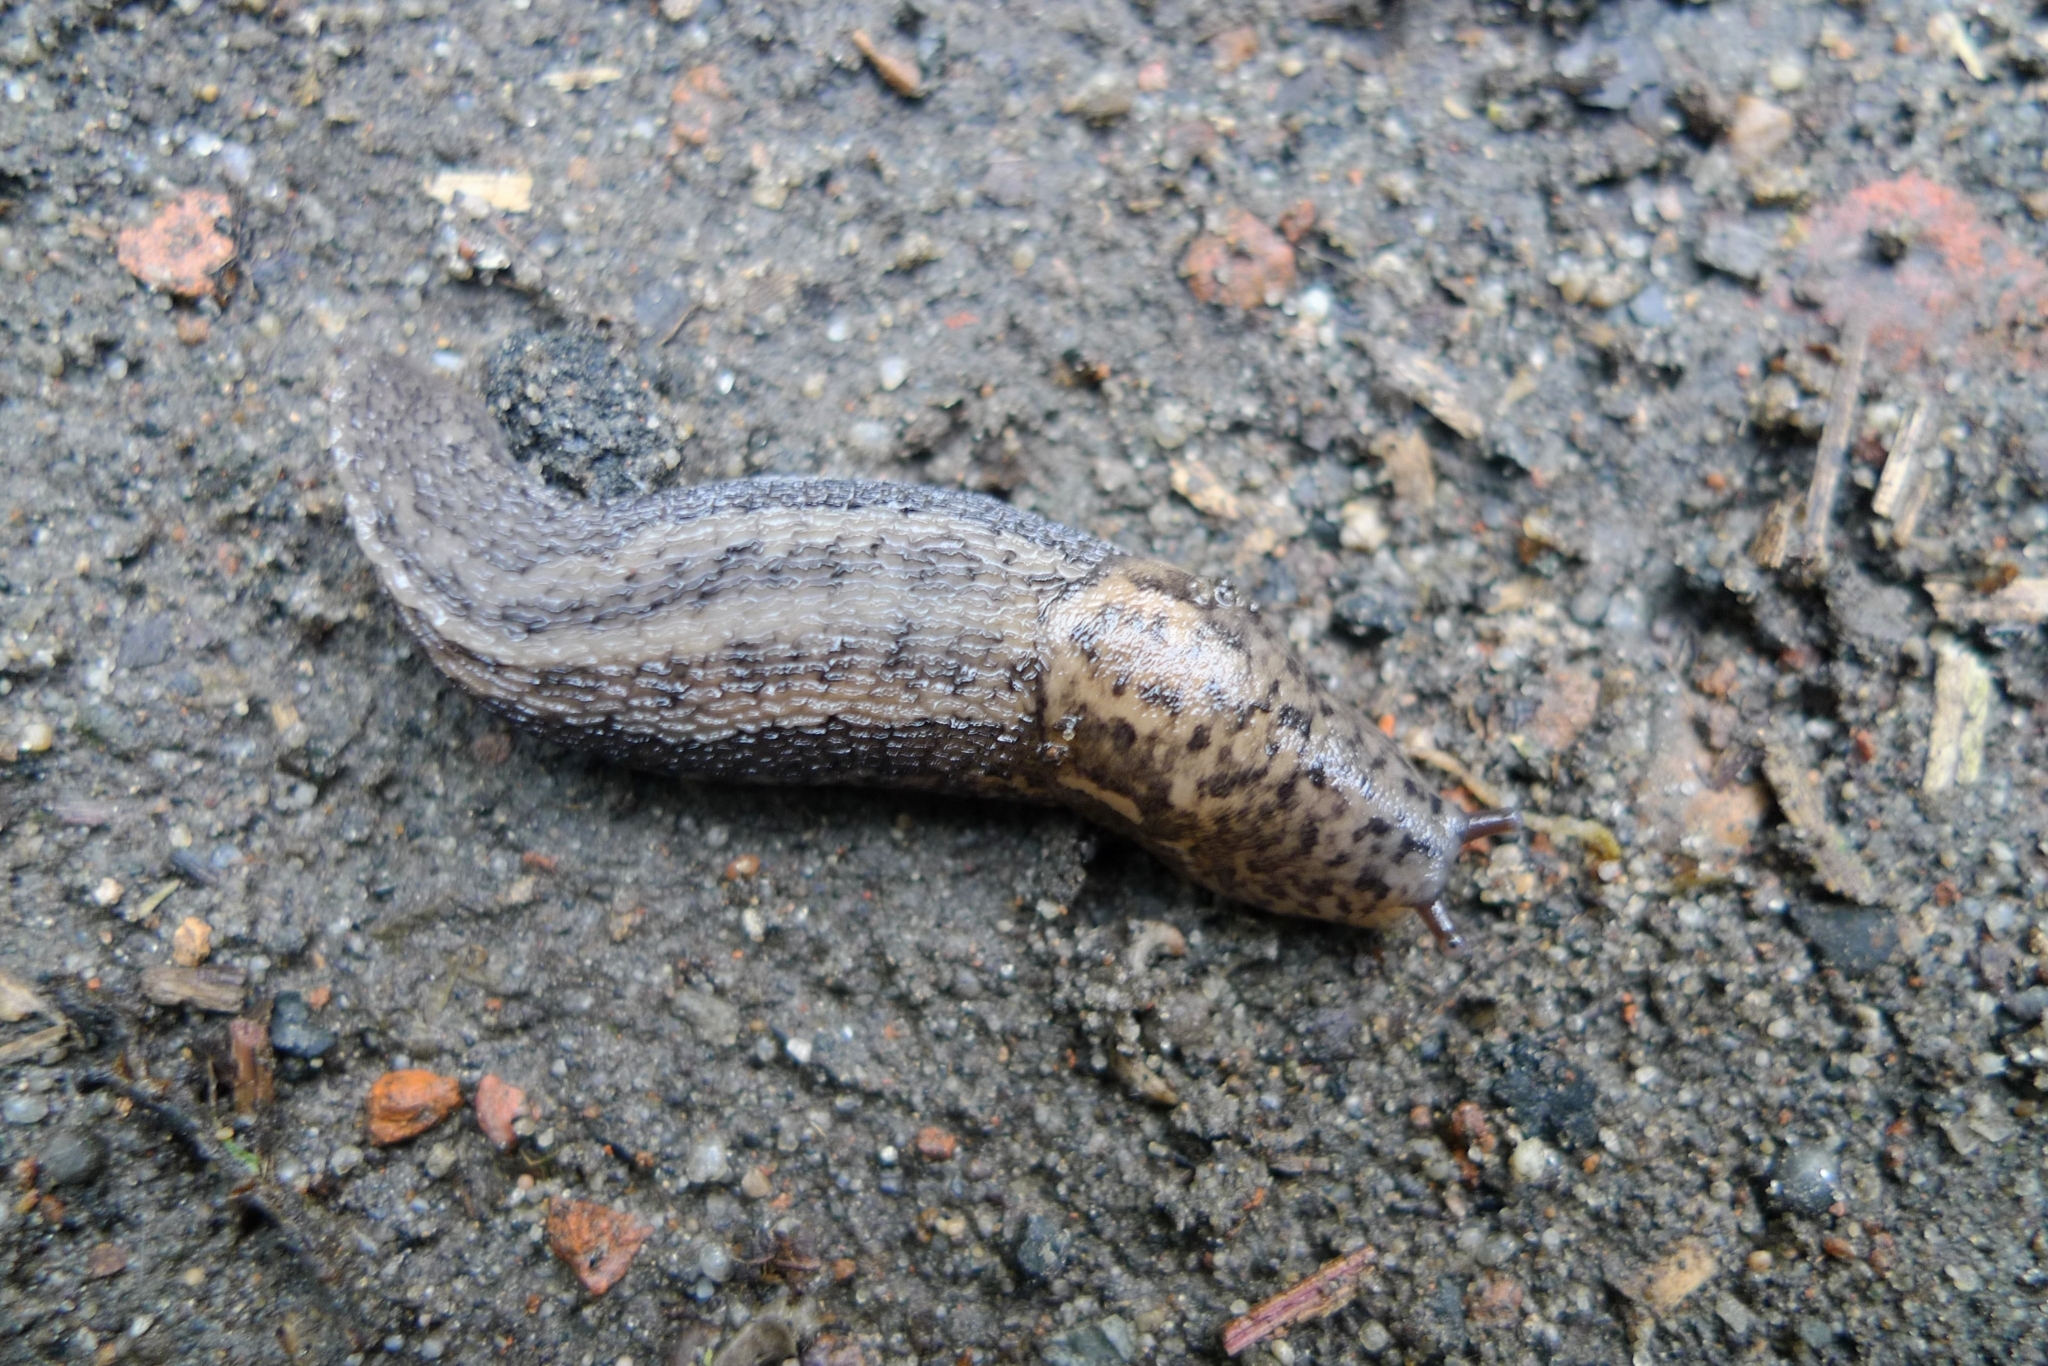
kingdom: Animalia
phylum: Mollusca
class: Gastropoda
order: Stylommatophora
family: Limacidae
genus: Limax
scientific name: Limax maximus
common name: Great grey slug
